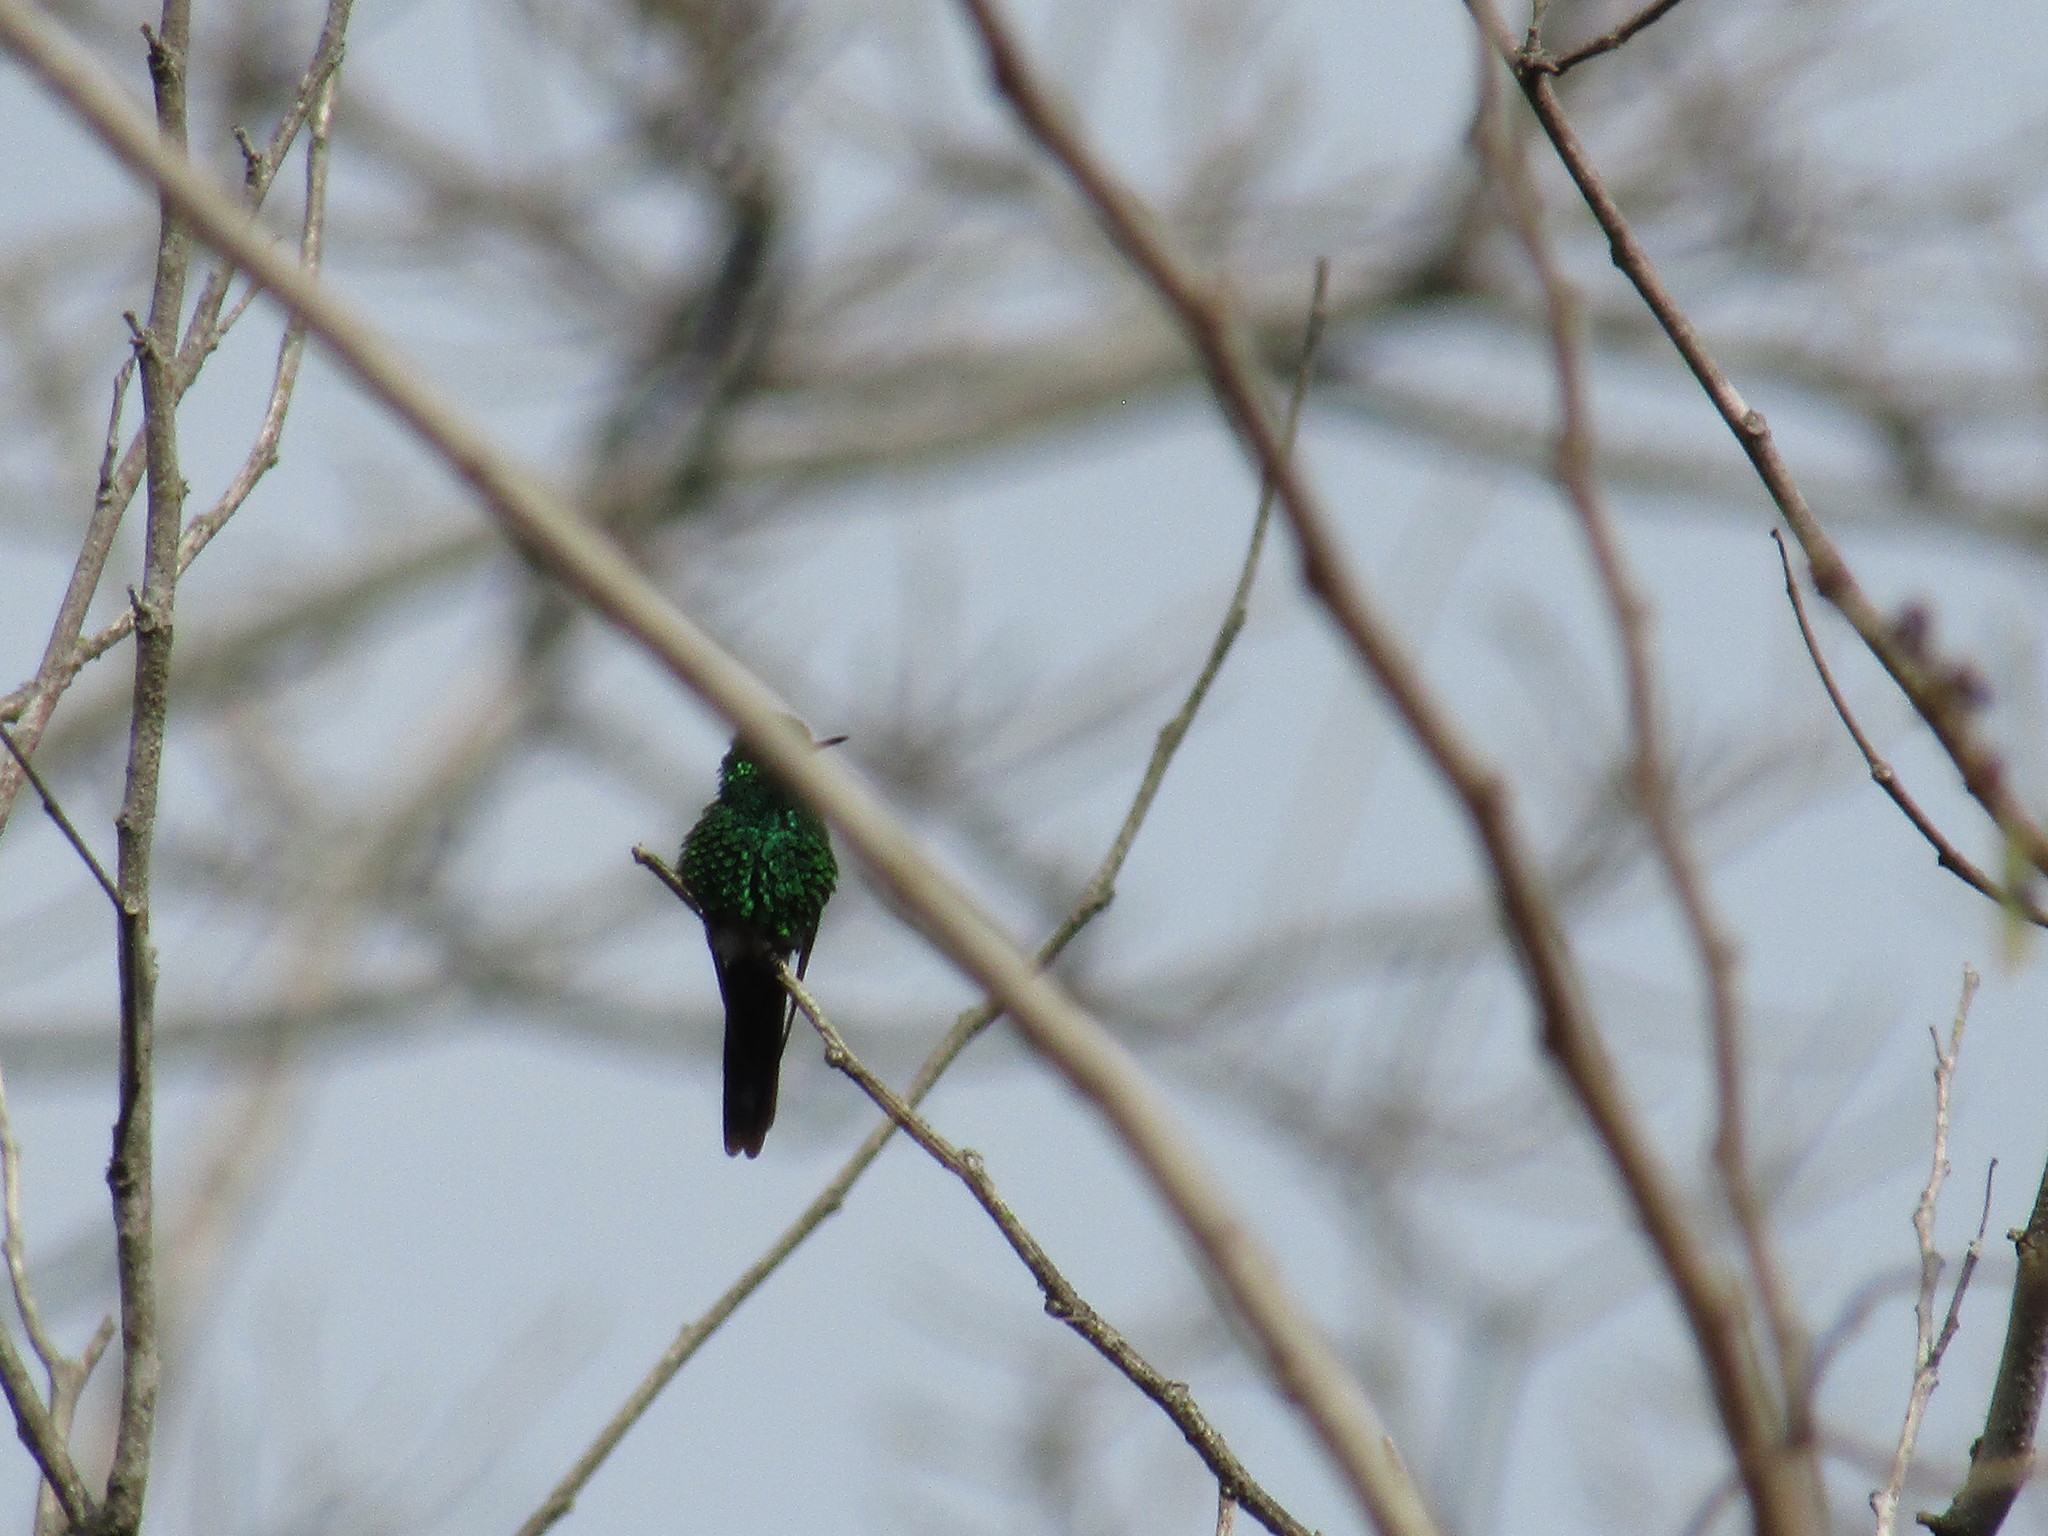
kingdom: Animalia
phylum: Chordata
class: Squamata
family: Phrynosomatidae
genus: Sceloporus
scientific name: Sceloporus variabilis
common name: Rosebelly lizard
